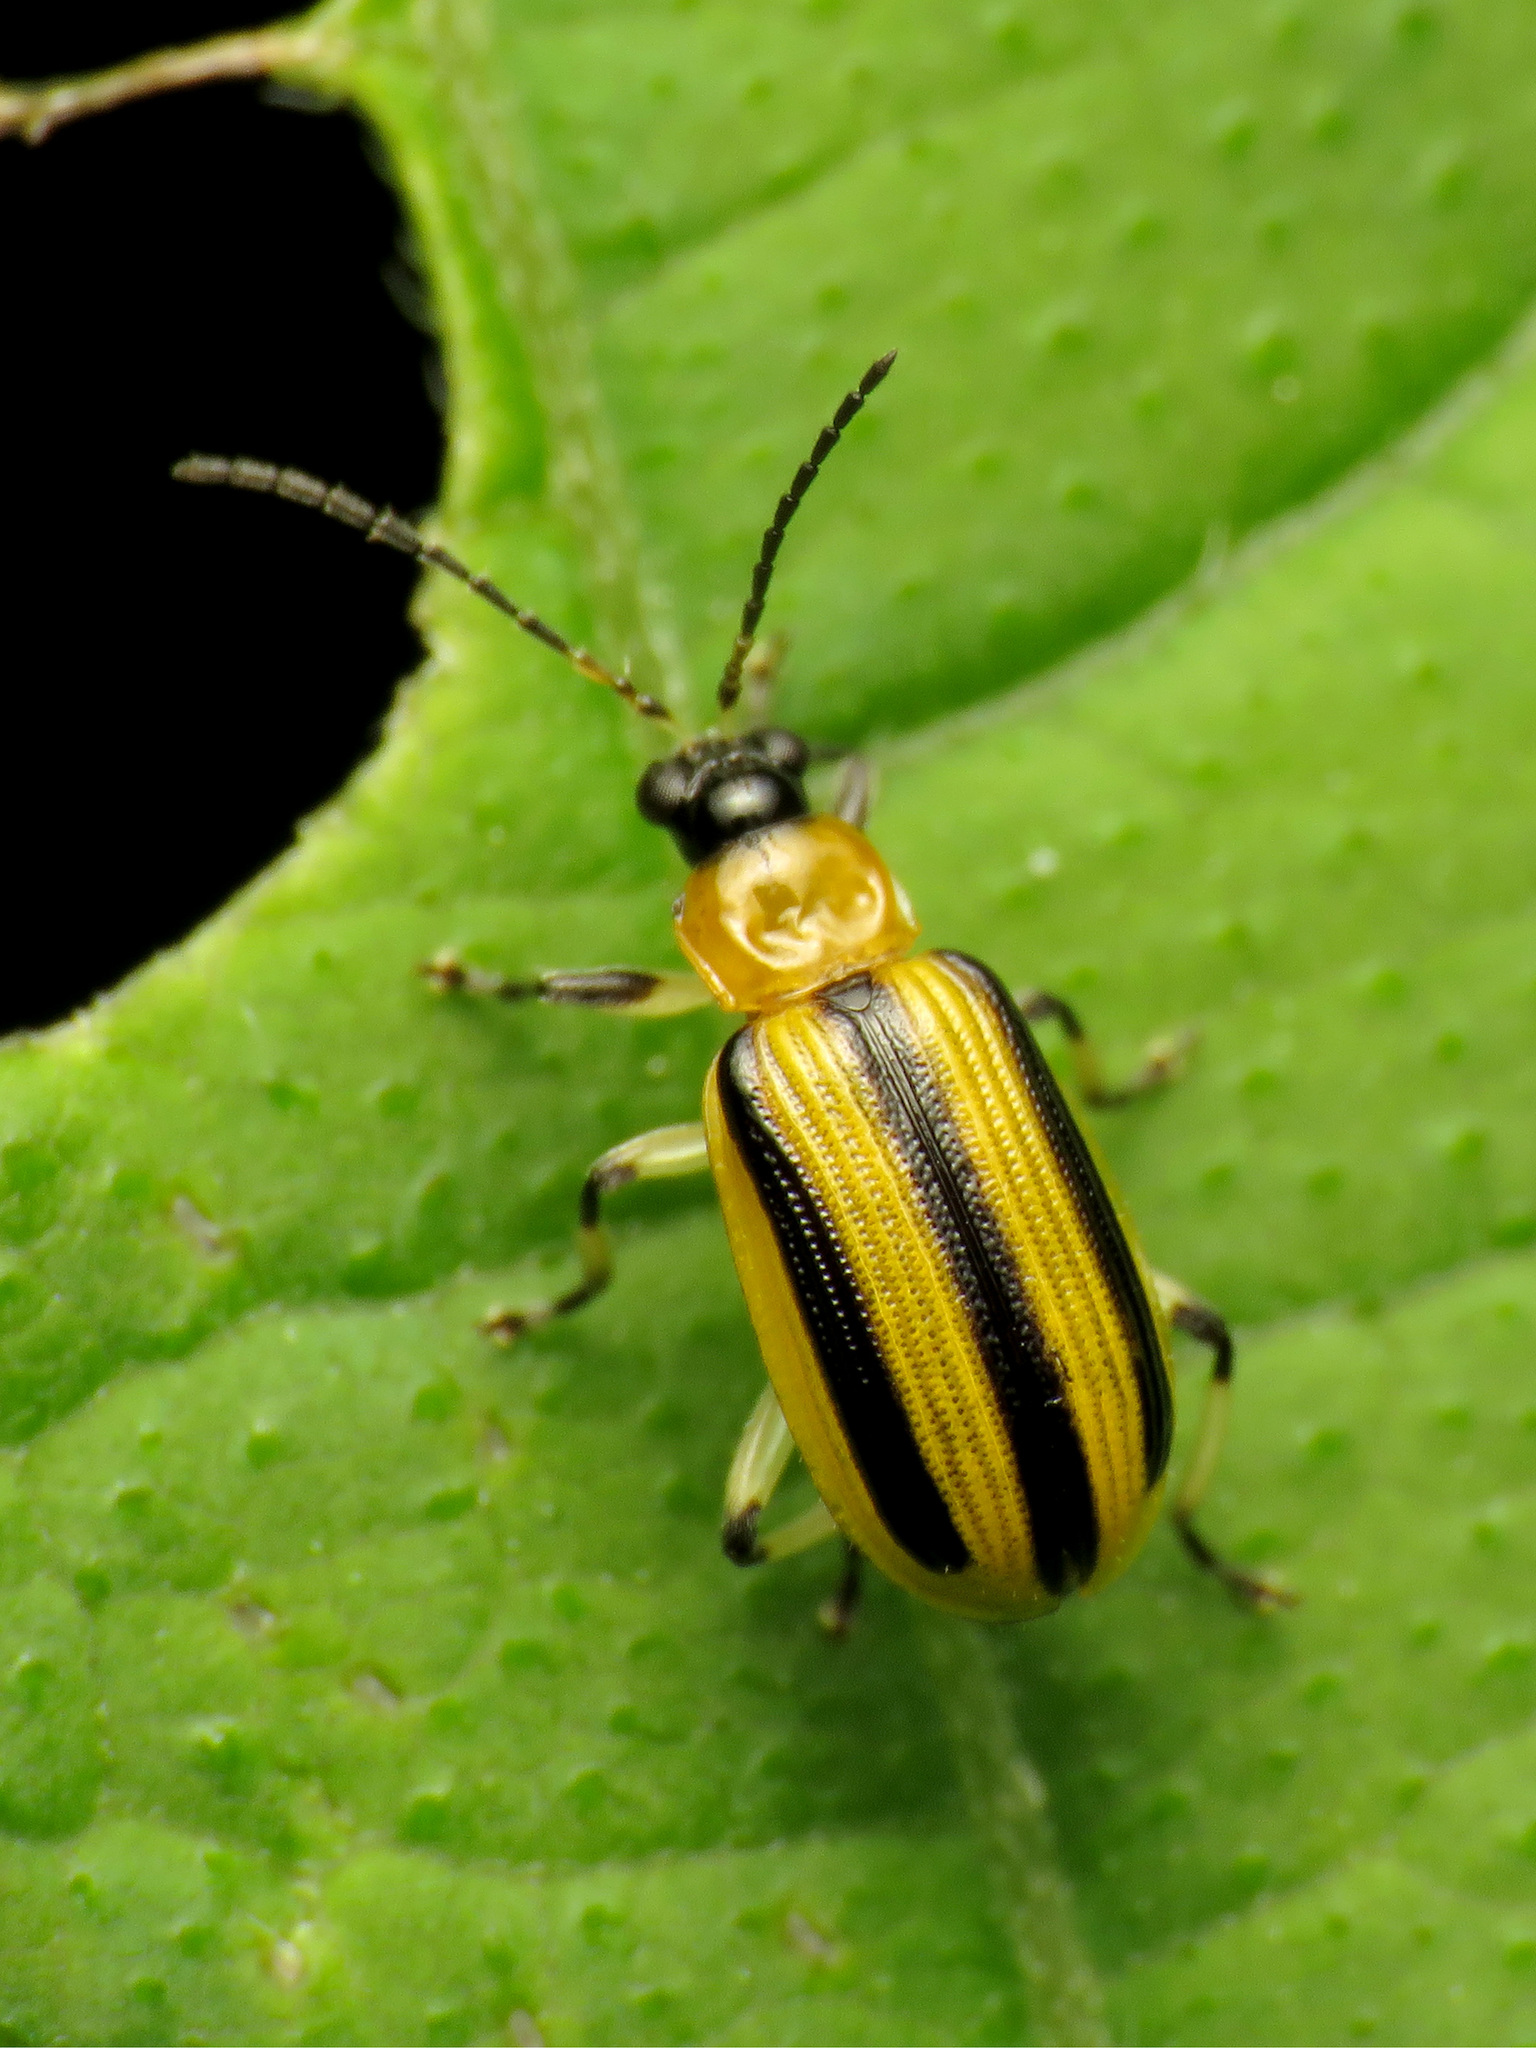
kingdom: Animalia
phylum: Arthropoda
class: Insecta
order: Coleoptera
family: Chrysomelidae
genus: Acalymma
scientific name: Acalymma vittatum
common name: Striped cucumber beetle
